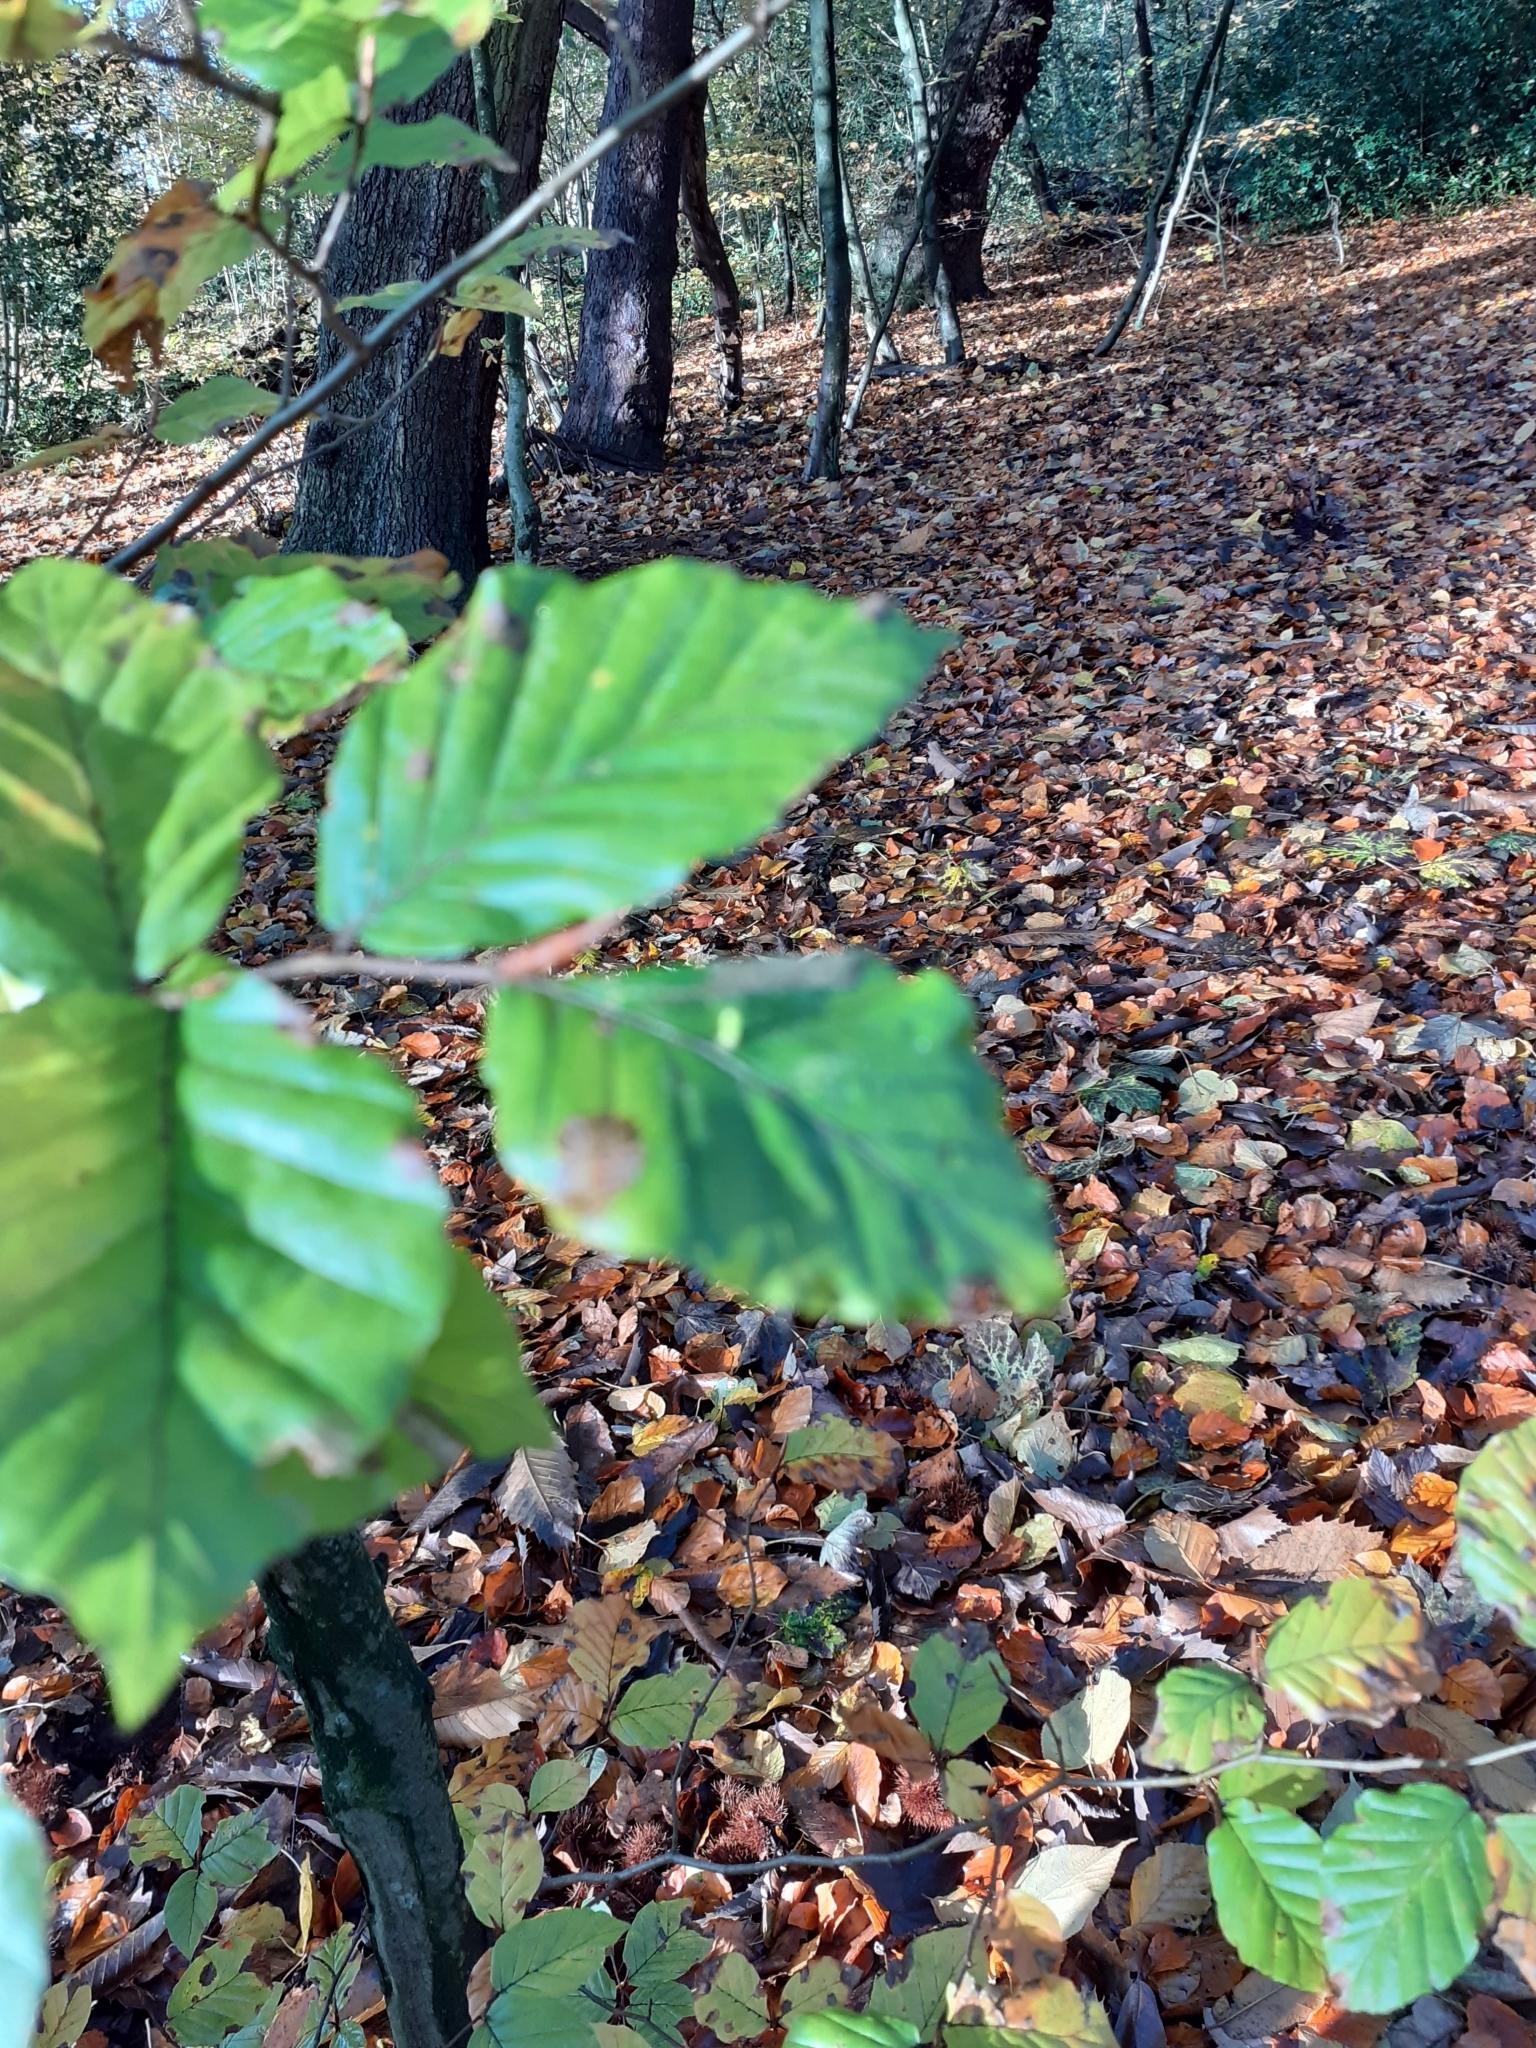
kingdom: Animalia
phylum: Arthropoda
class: Insecta
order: Diptera
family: Cecidomyiidae
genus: Hartigiola
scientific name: Hartigiola annulipes
